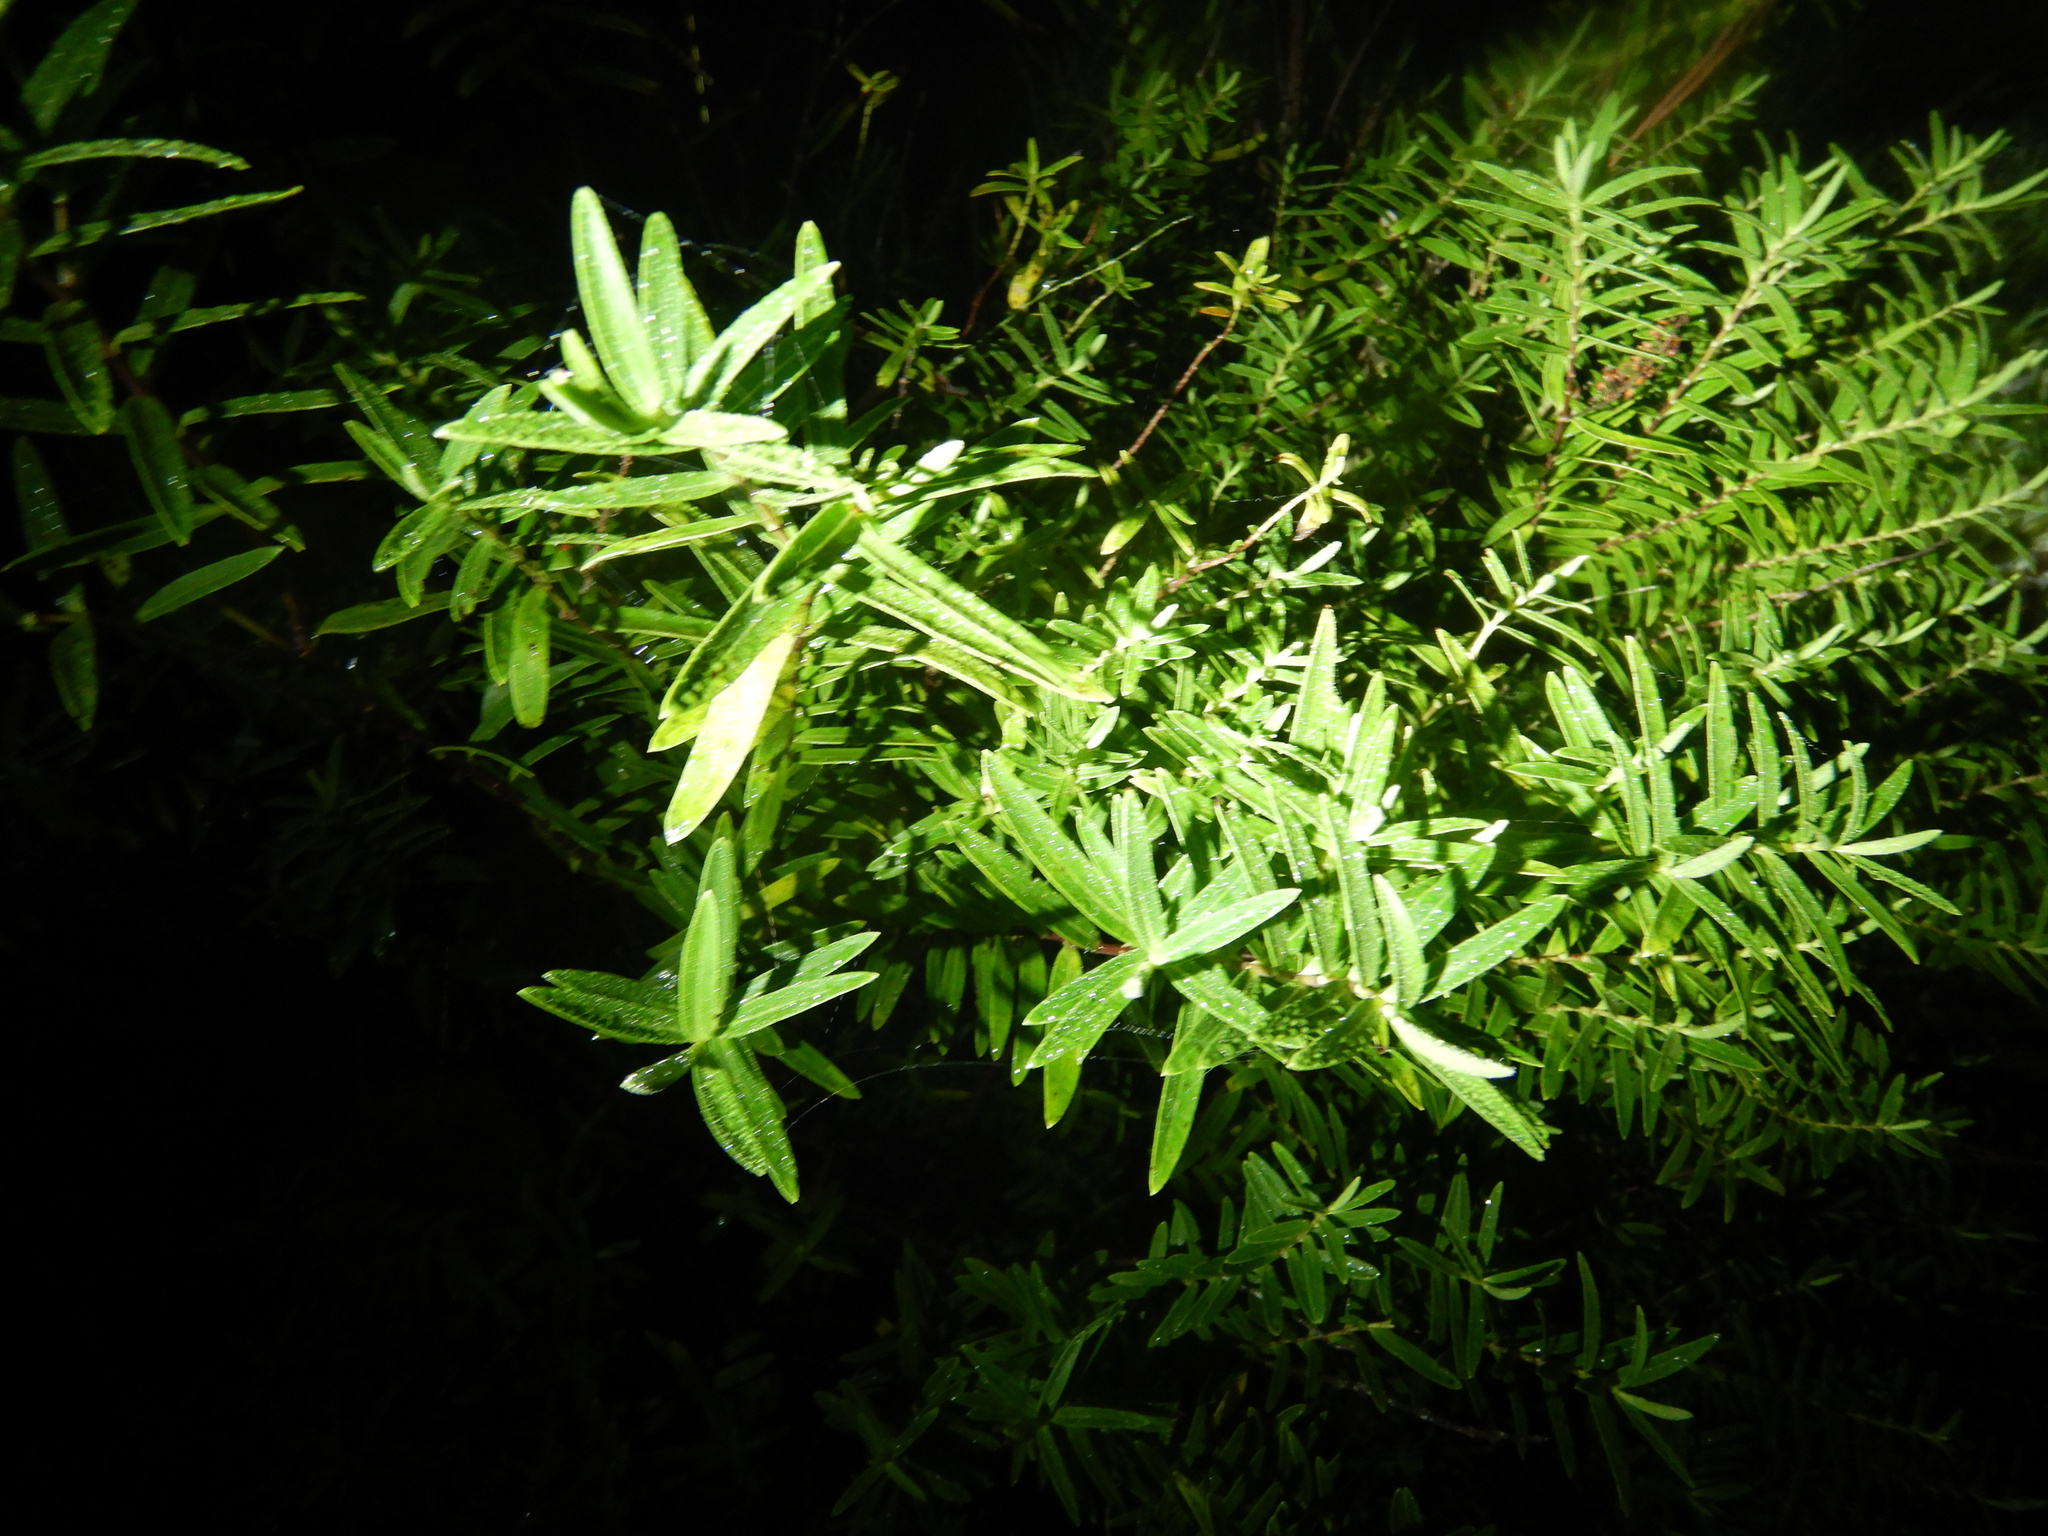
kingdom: Plantae
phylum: Tracheophyta
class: Magnoliopsida
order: Lamiales
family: Plantaginaceae
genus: Veronica
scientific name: Veronica strictissima
